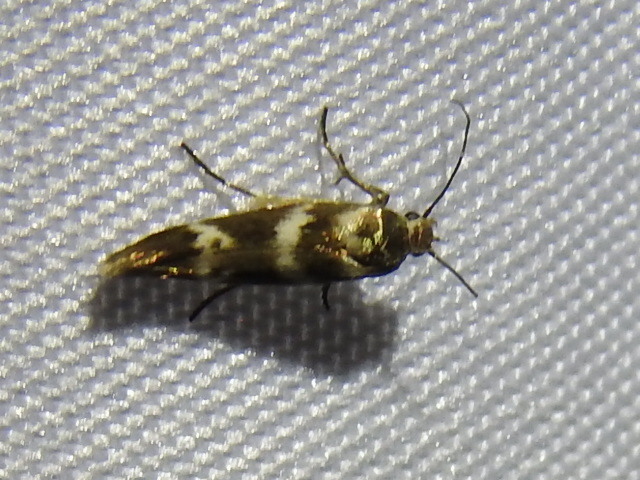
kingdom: Animalia
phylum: Arthropoda
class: Insecta
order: Lepidoptera
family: Scythrididae
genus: Scythris
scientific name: Scythris trivinctella
